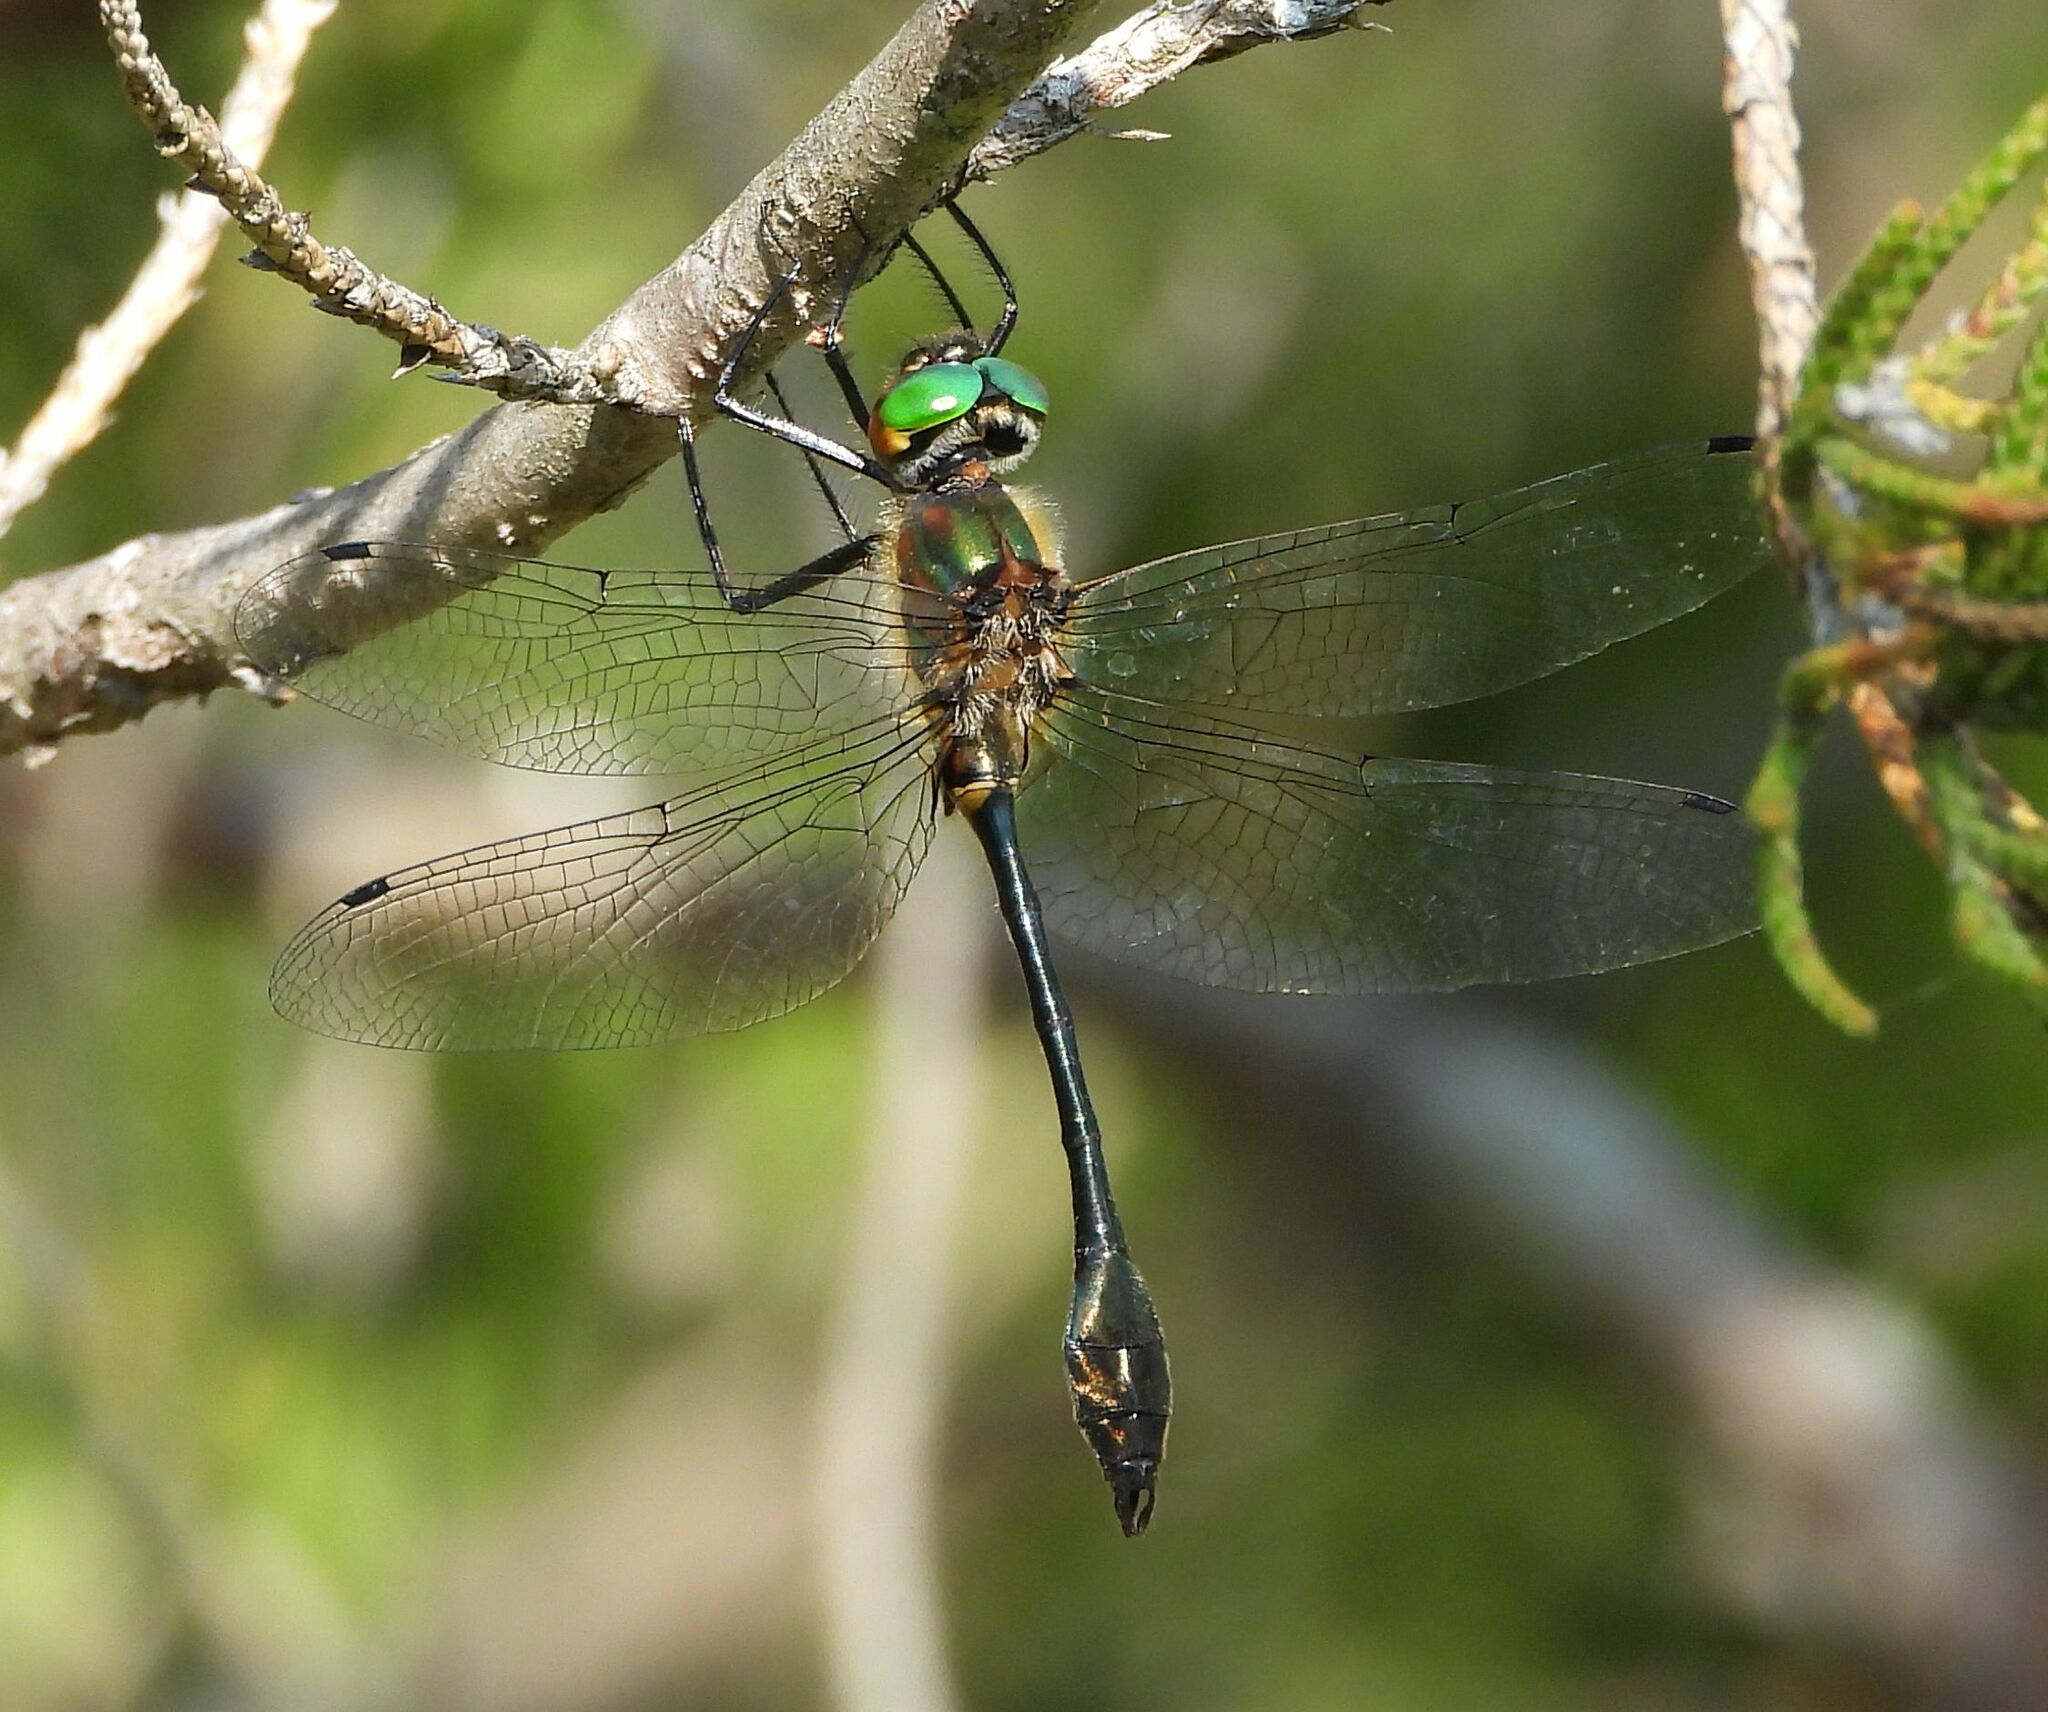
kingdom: Animalia
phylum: Arthropoda
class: Insecta
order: Odonata
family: Corduliidae
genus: Dorocordulia
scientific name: Dorocordulia libera
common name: Racket-tailed emerald
